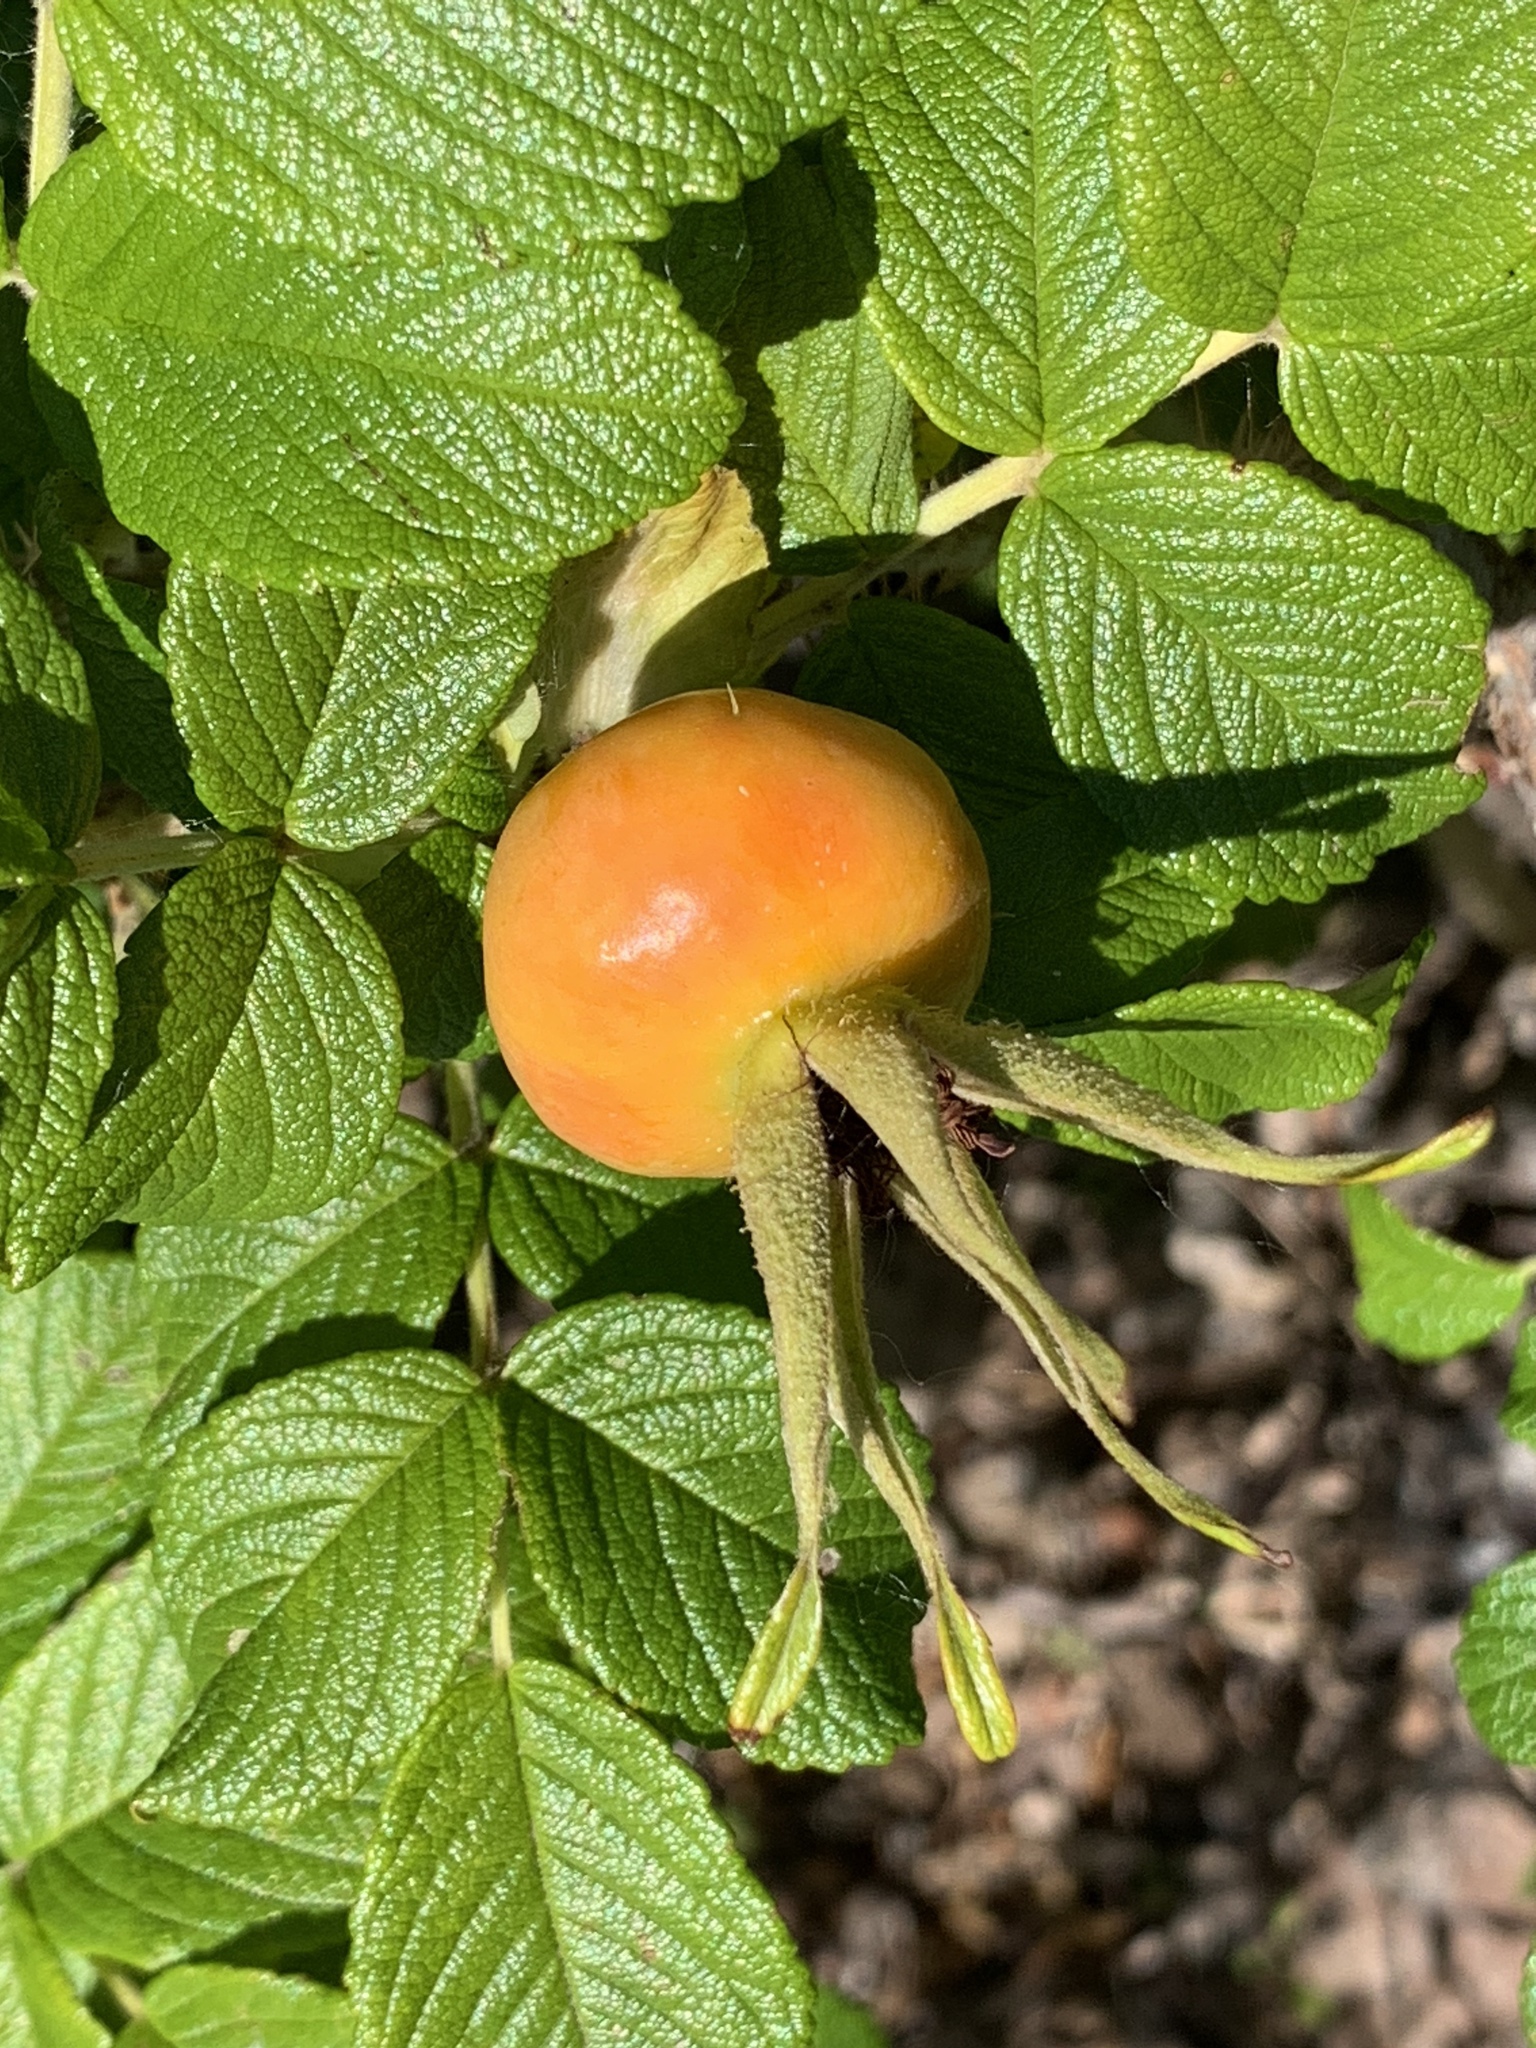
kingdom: Plantae
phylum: Tracheophyta
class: Magnoliopsida
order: Rosales
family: Rosaceae
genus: Rosa
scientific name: Rosa rugosa
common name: Japanese rose
